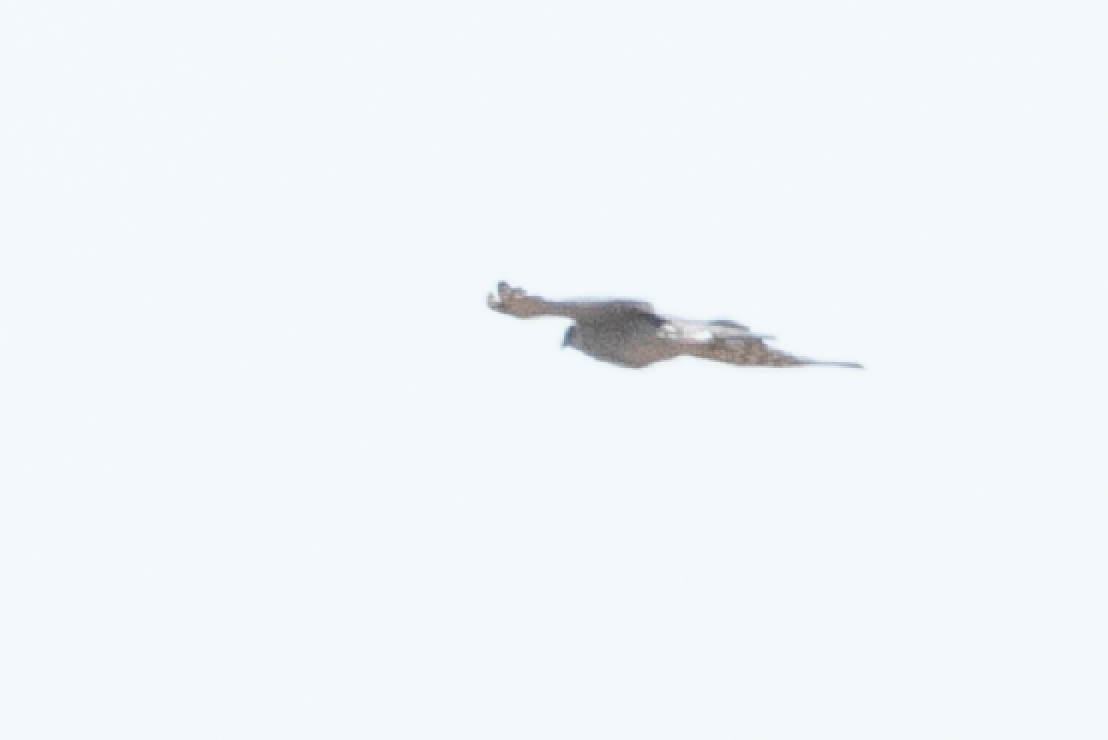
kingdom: Animalia
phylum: Chordata
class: Aves
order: Accipitriformes
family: Accipitridae
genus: Accipiter
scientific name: Accipiter nisus
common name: Eurasian sparrowhawk
